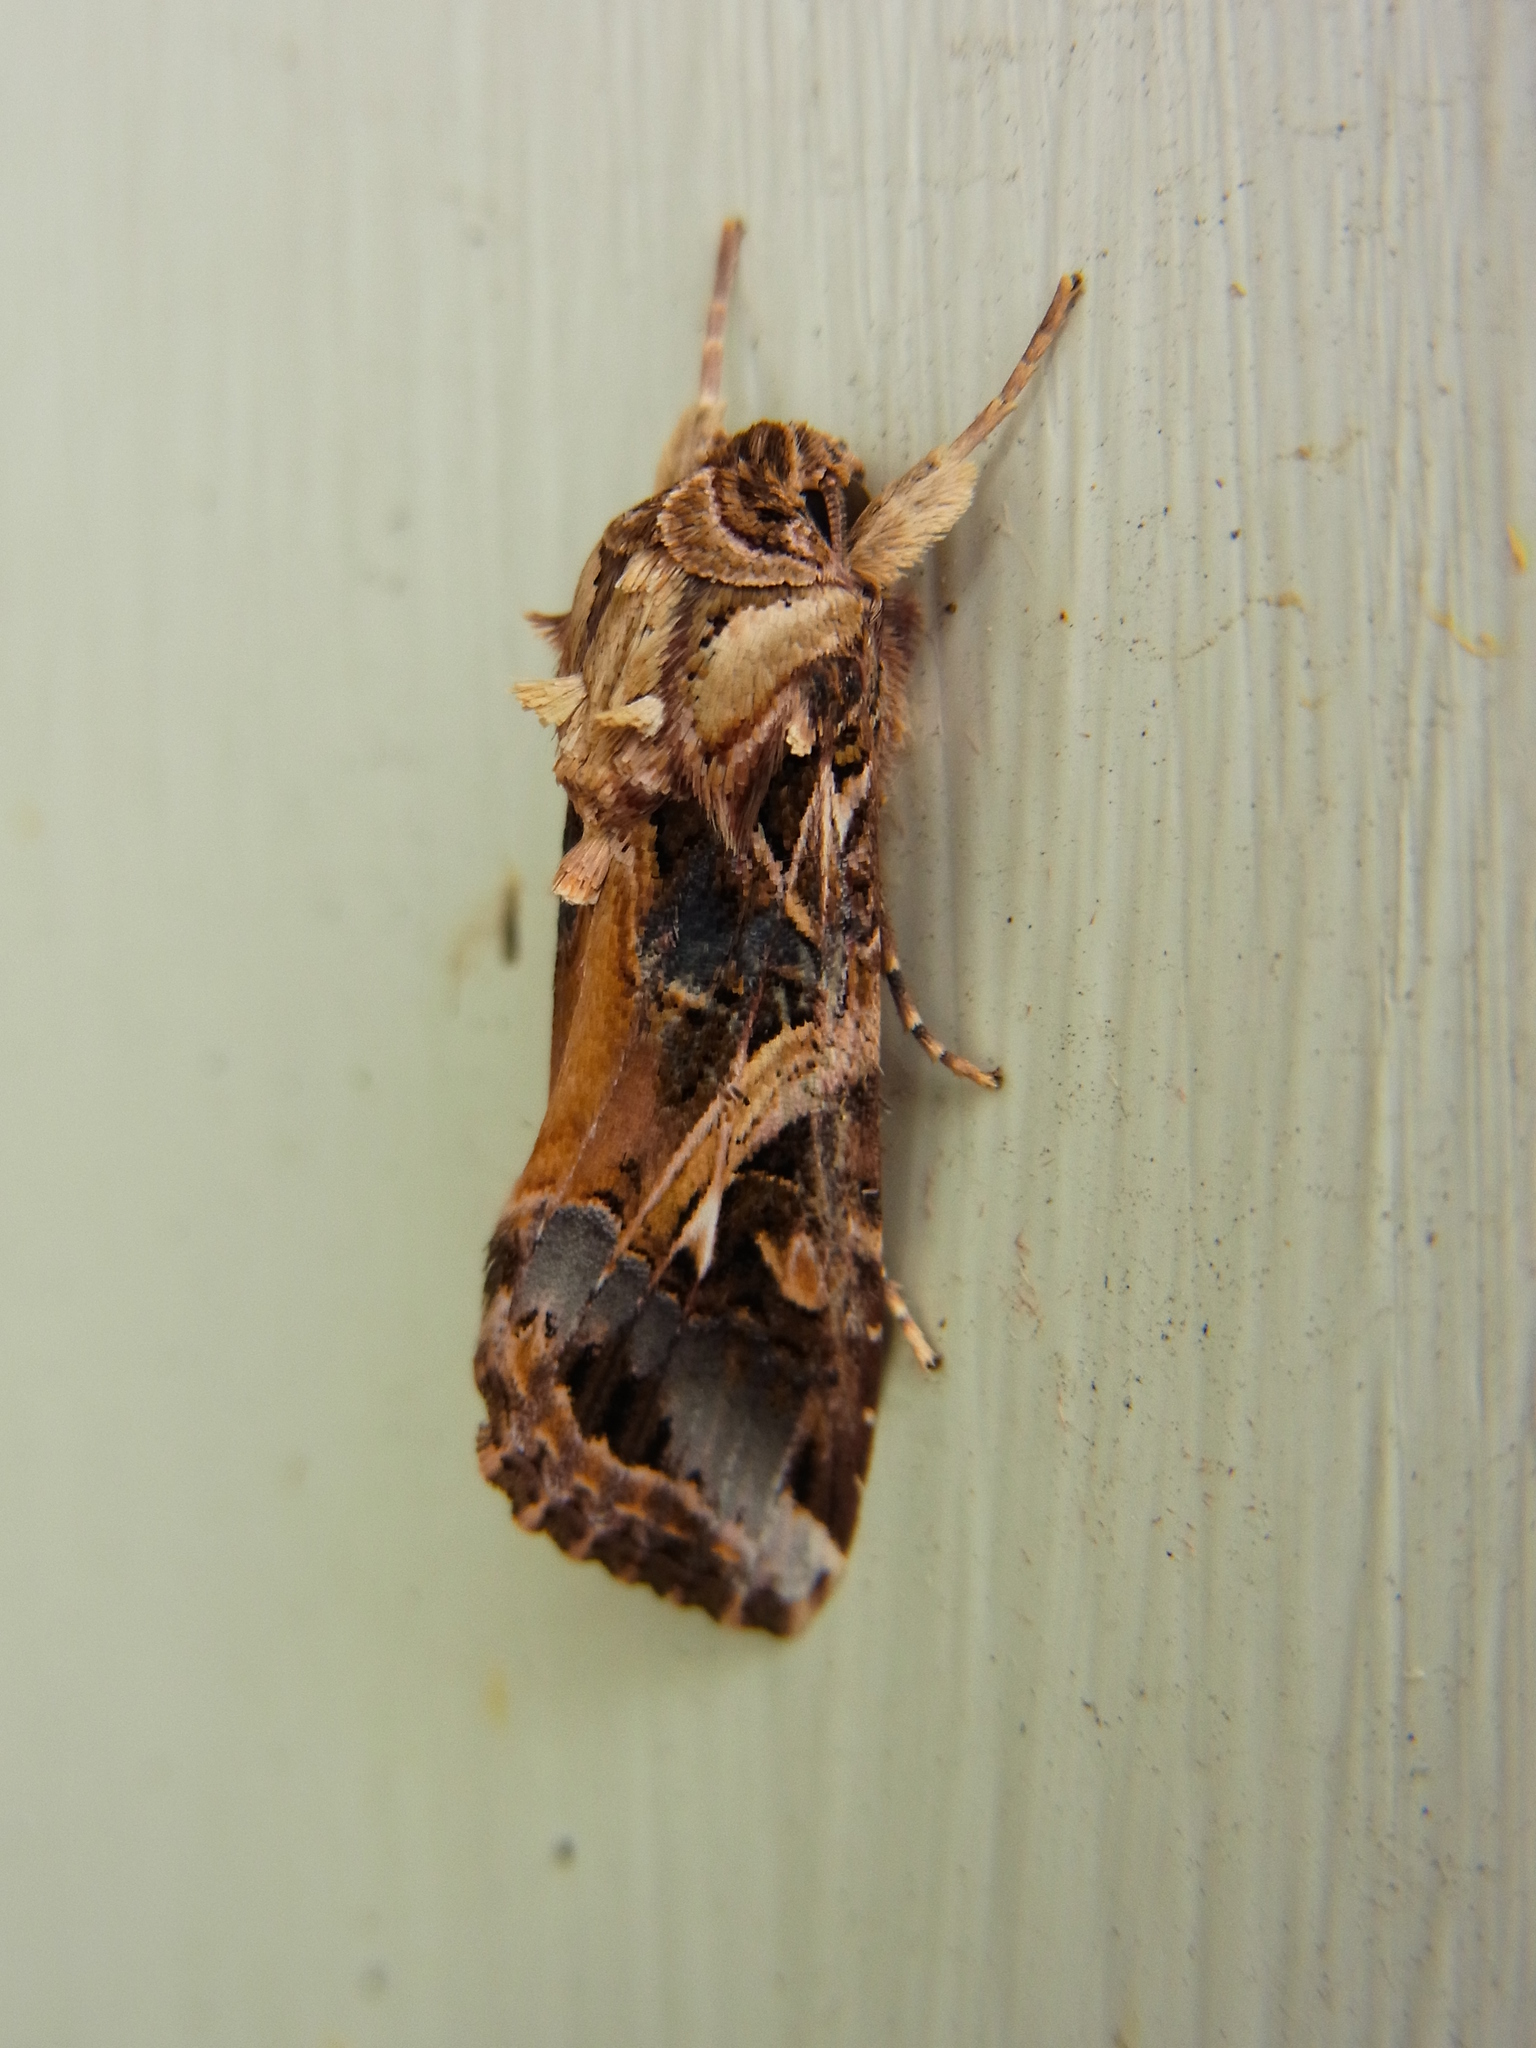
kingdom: Animalia
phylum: Arthropoda
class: Insecta
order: Lepidoptera
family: Noctuidae
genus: Spodoptera
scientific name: Spodoptera litura
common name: Asian cotton leafworm
